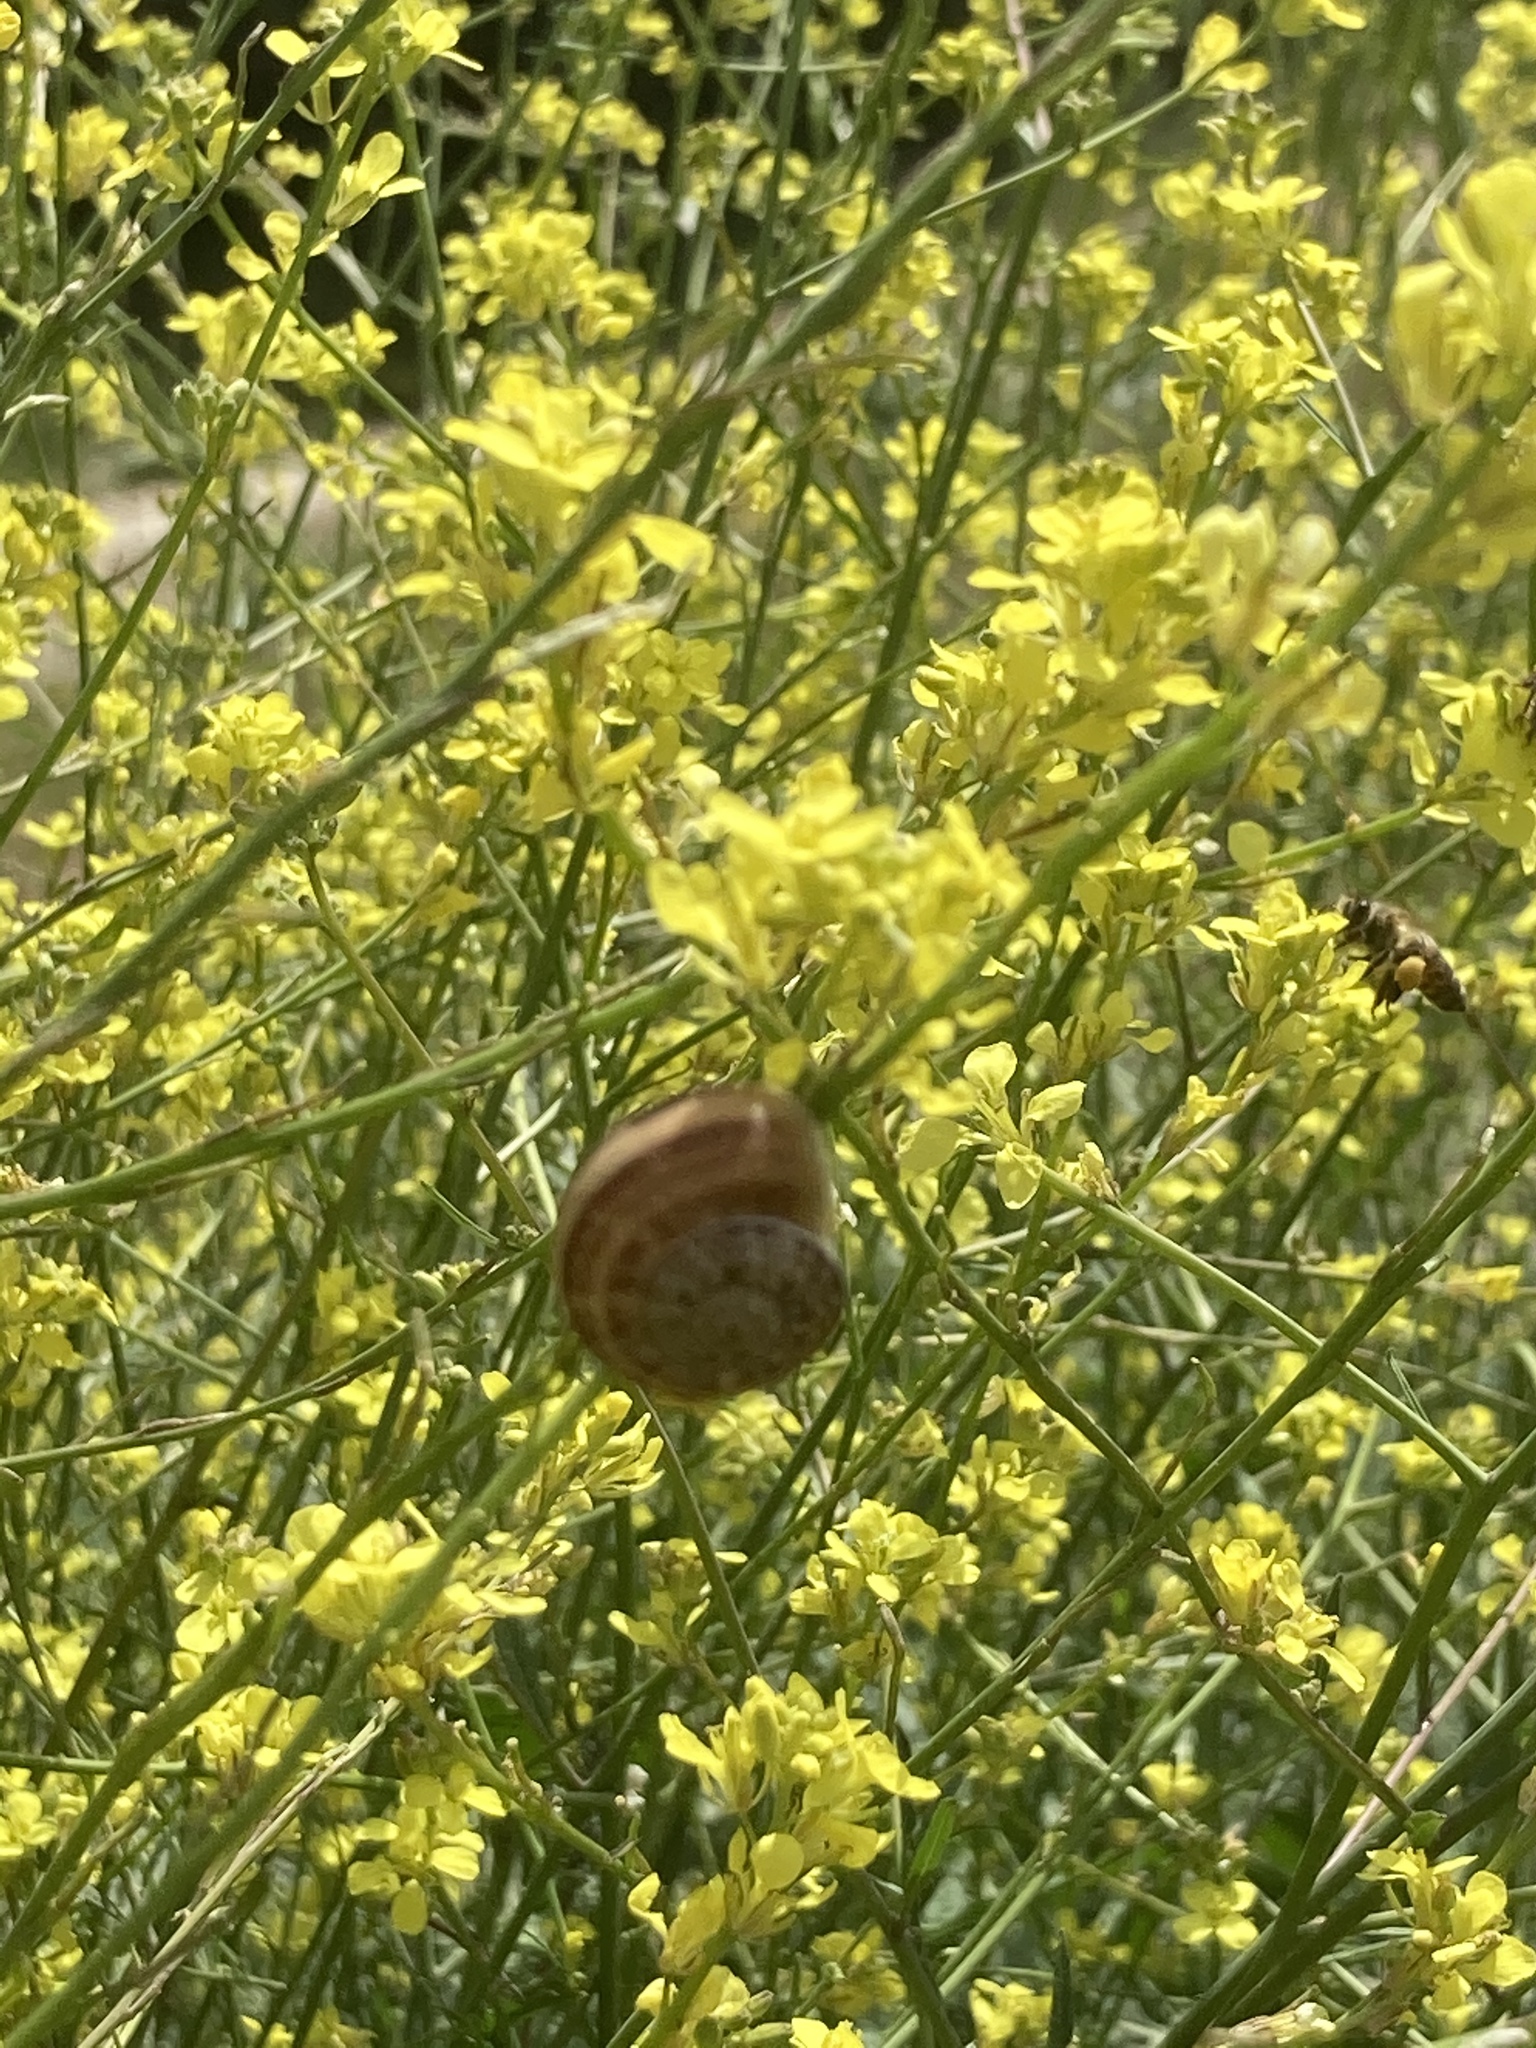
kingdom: Animalia
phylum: Arthropoda
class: Insecta
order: Hymenoptera
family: Apidae
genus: Apis
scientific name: Apis mellifera
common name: Honey bee
